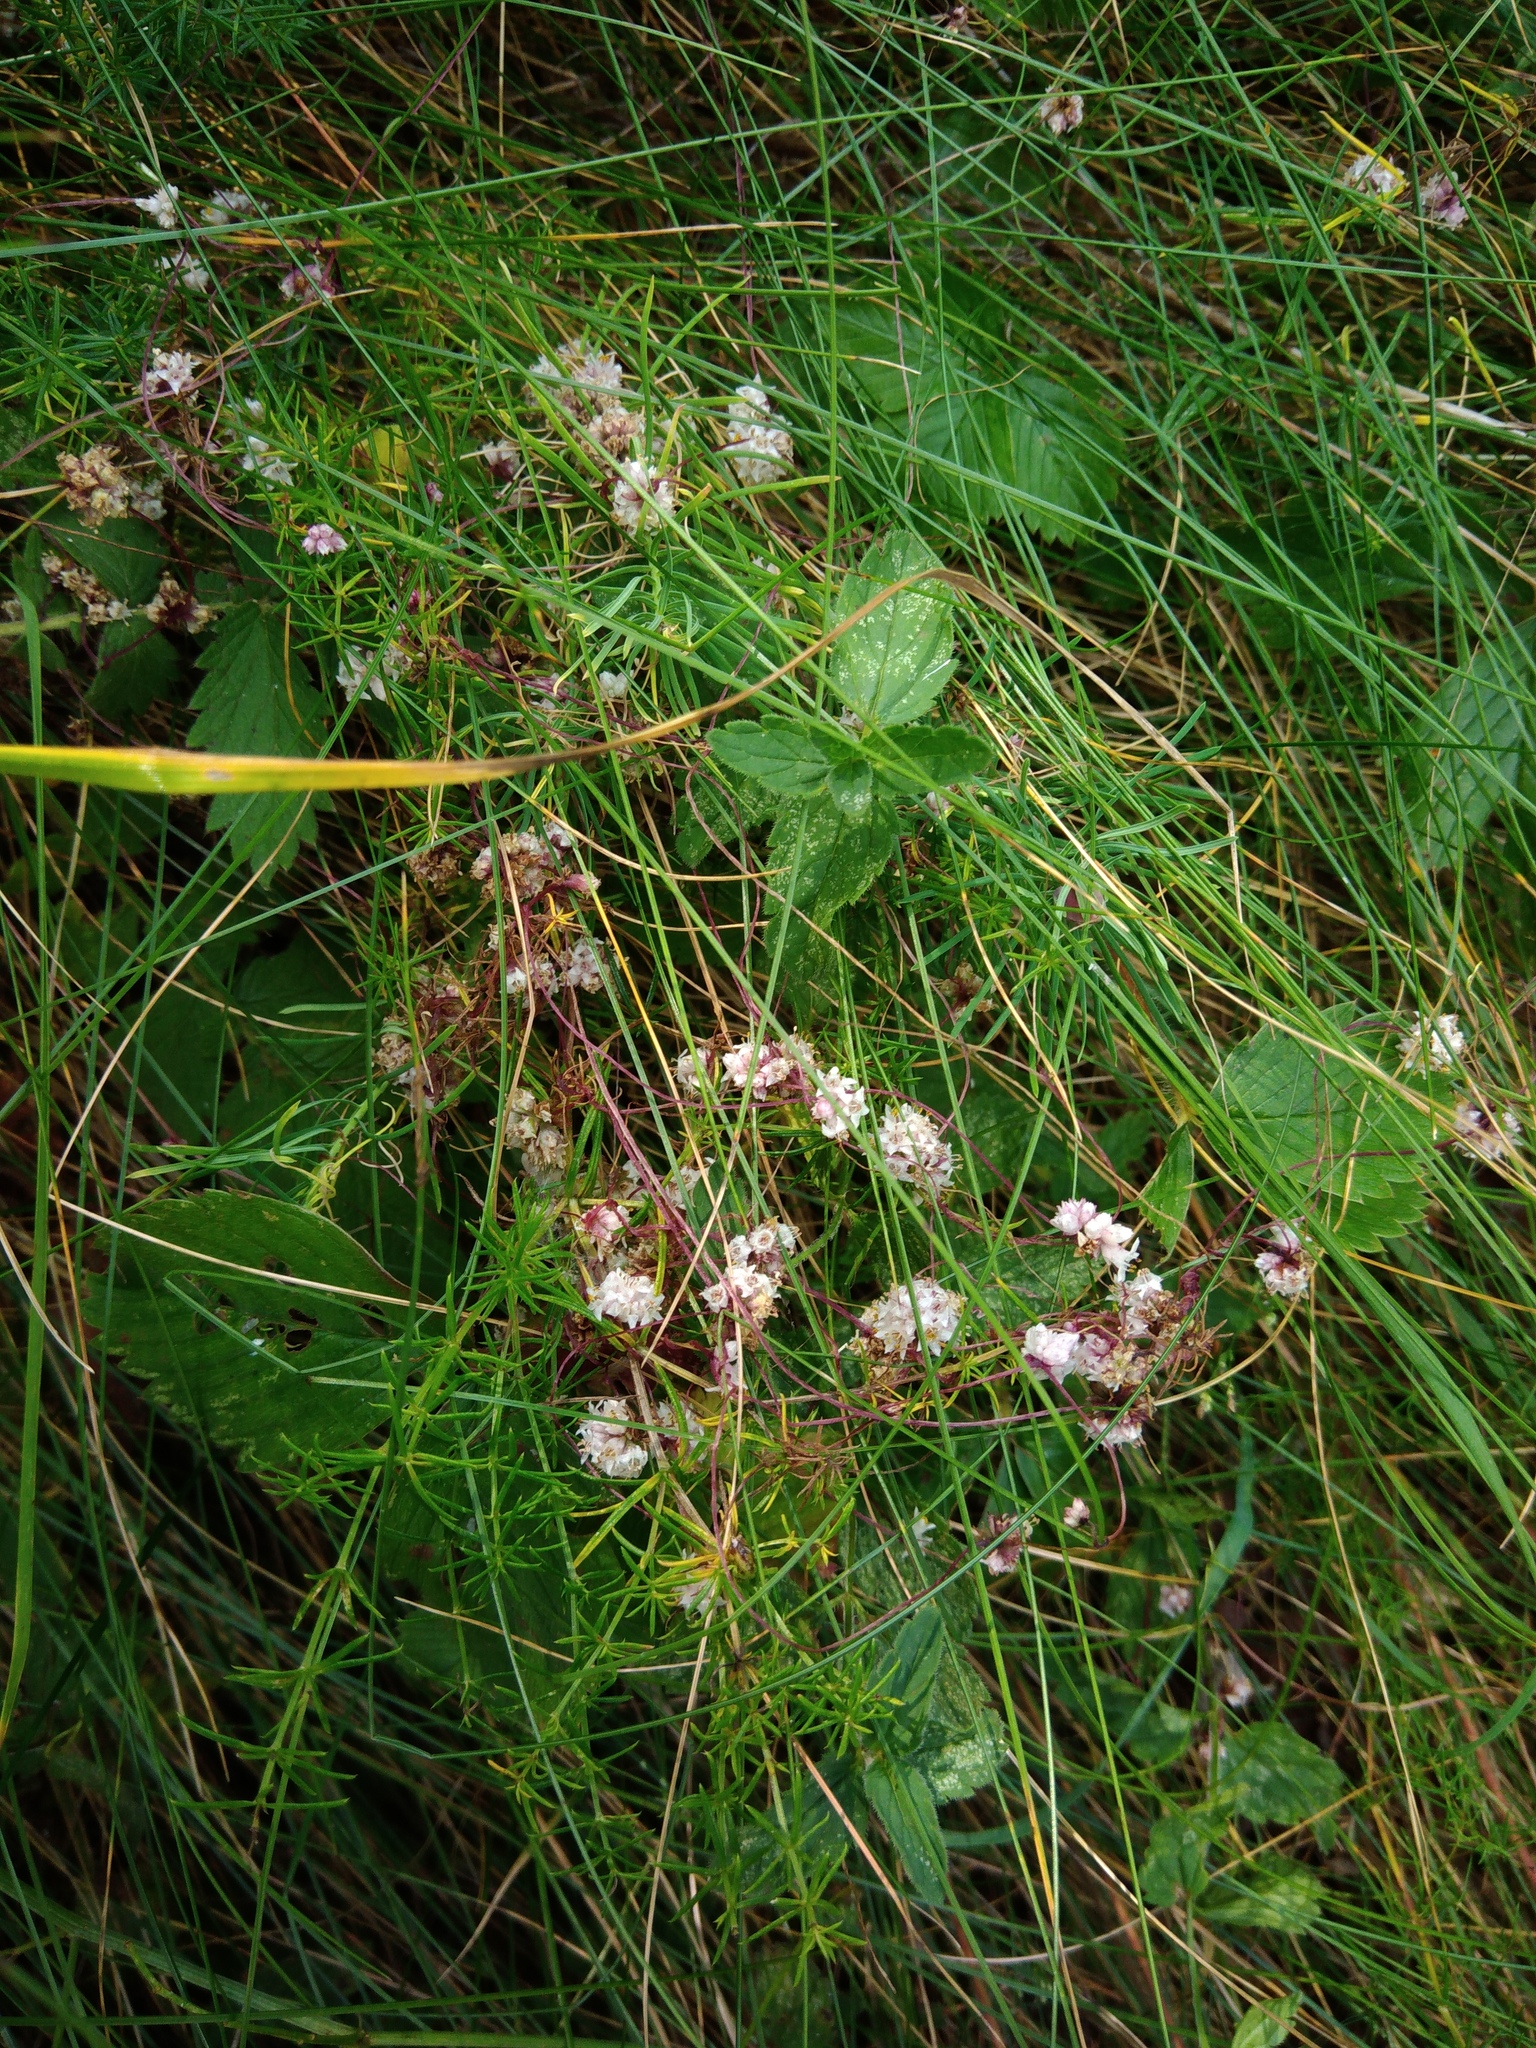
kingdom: Plantae
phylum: Tracheophyta
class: Magnoliopsida
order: Solanales
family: Convolvulaceae
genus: Cuscuta
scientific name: Cuscuta epithymum
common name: Clover dodder
